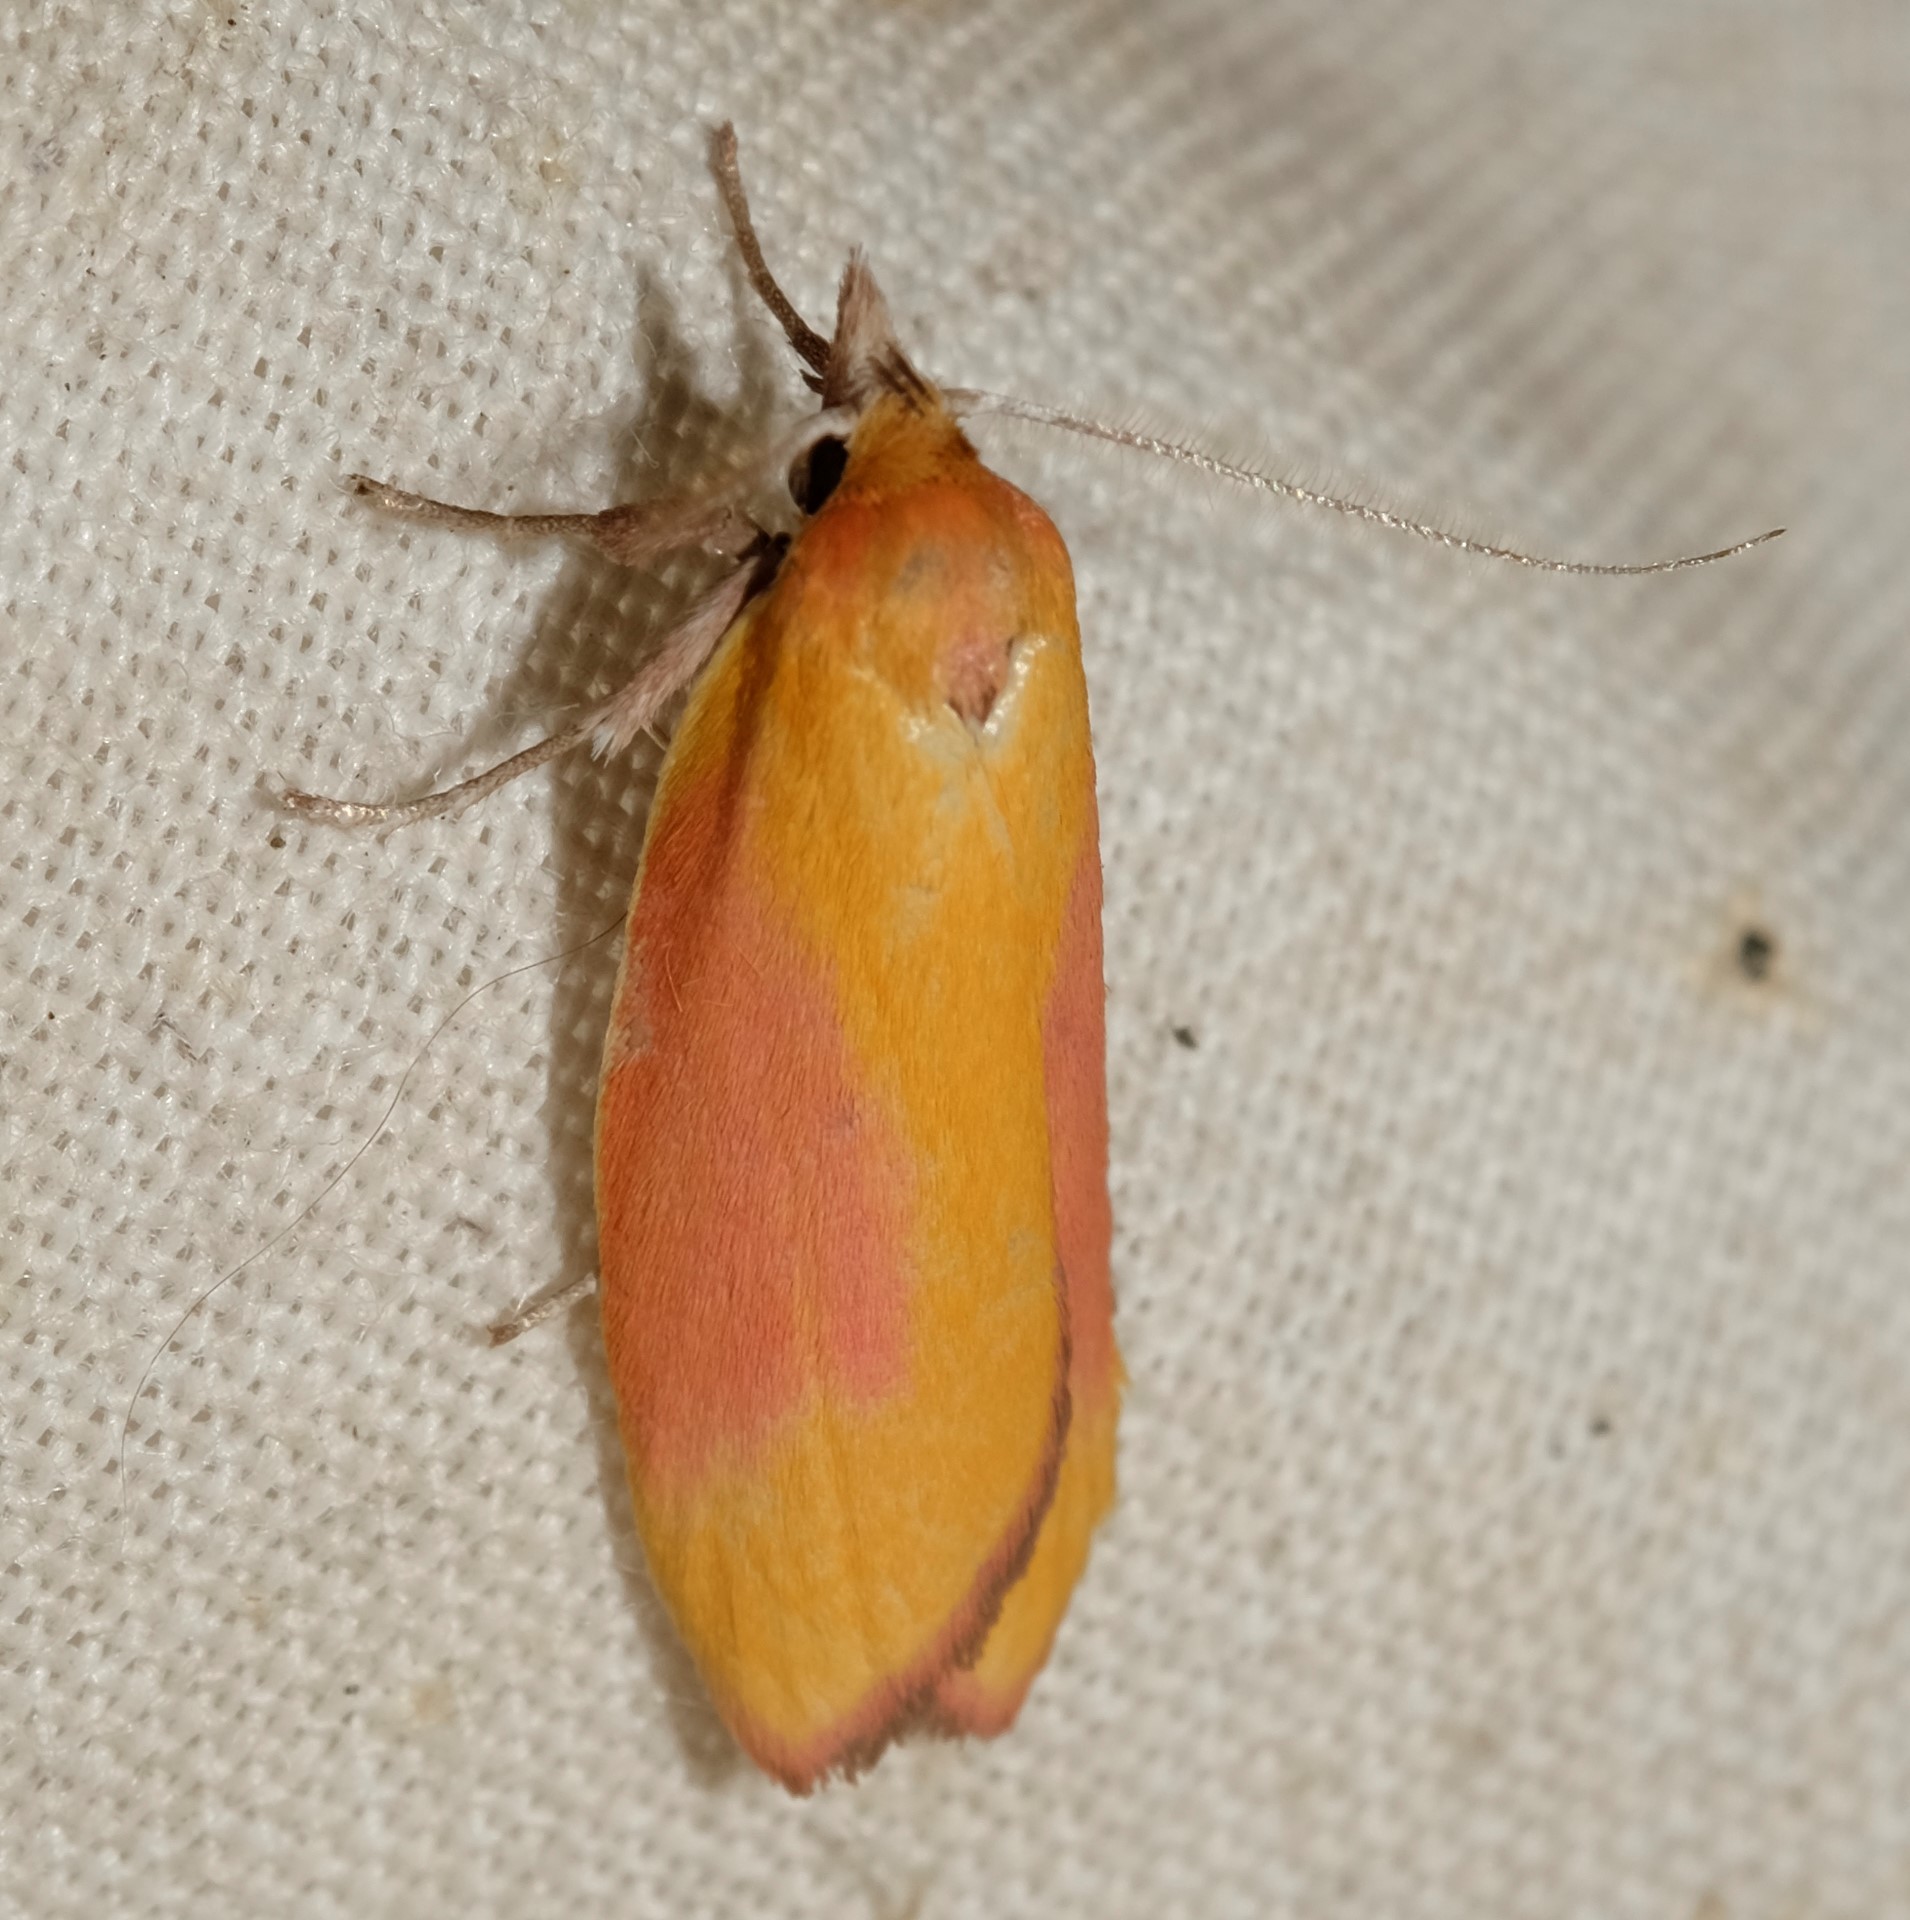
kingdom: Animalia
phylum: Arthropoda
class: Insecta
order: Lepidoptera
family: Oecophoridae
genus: Wingia
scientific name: Wingia hesperidella
